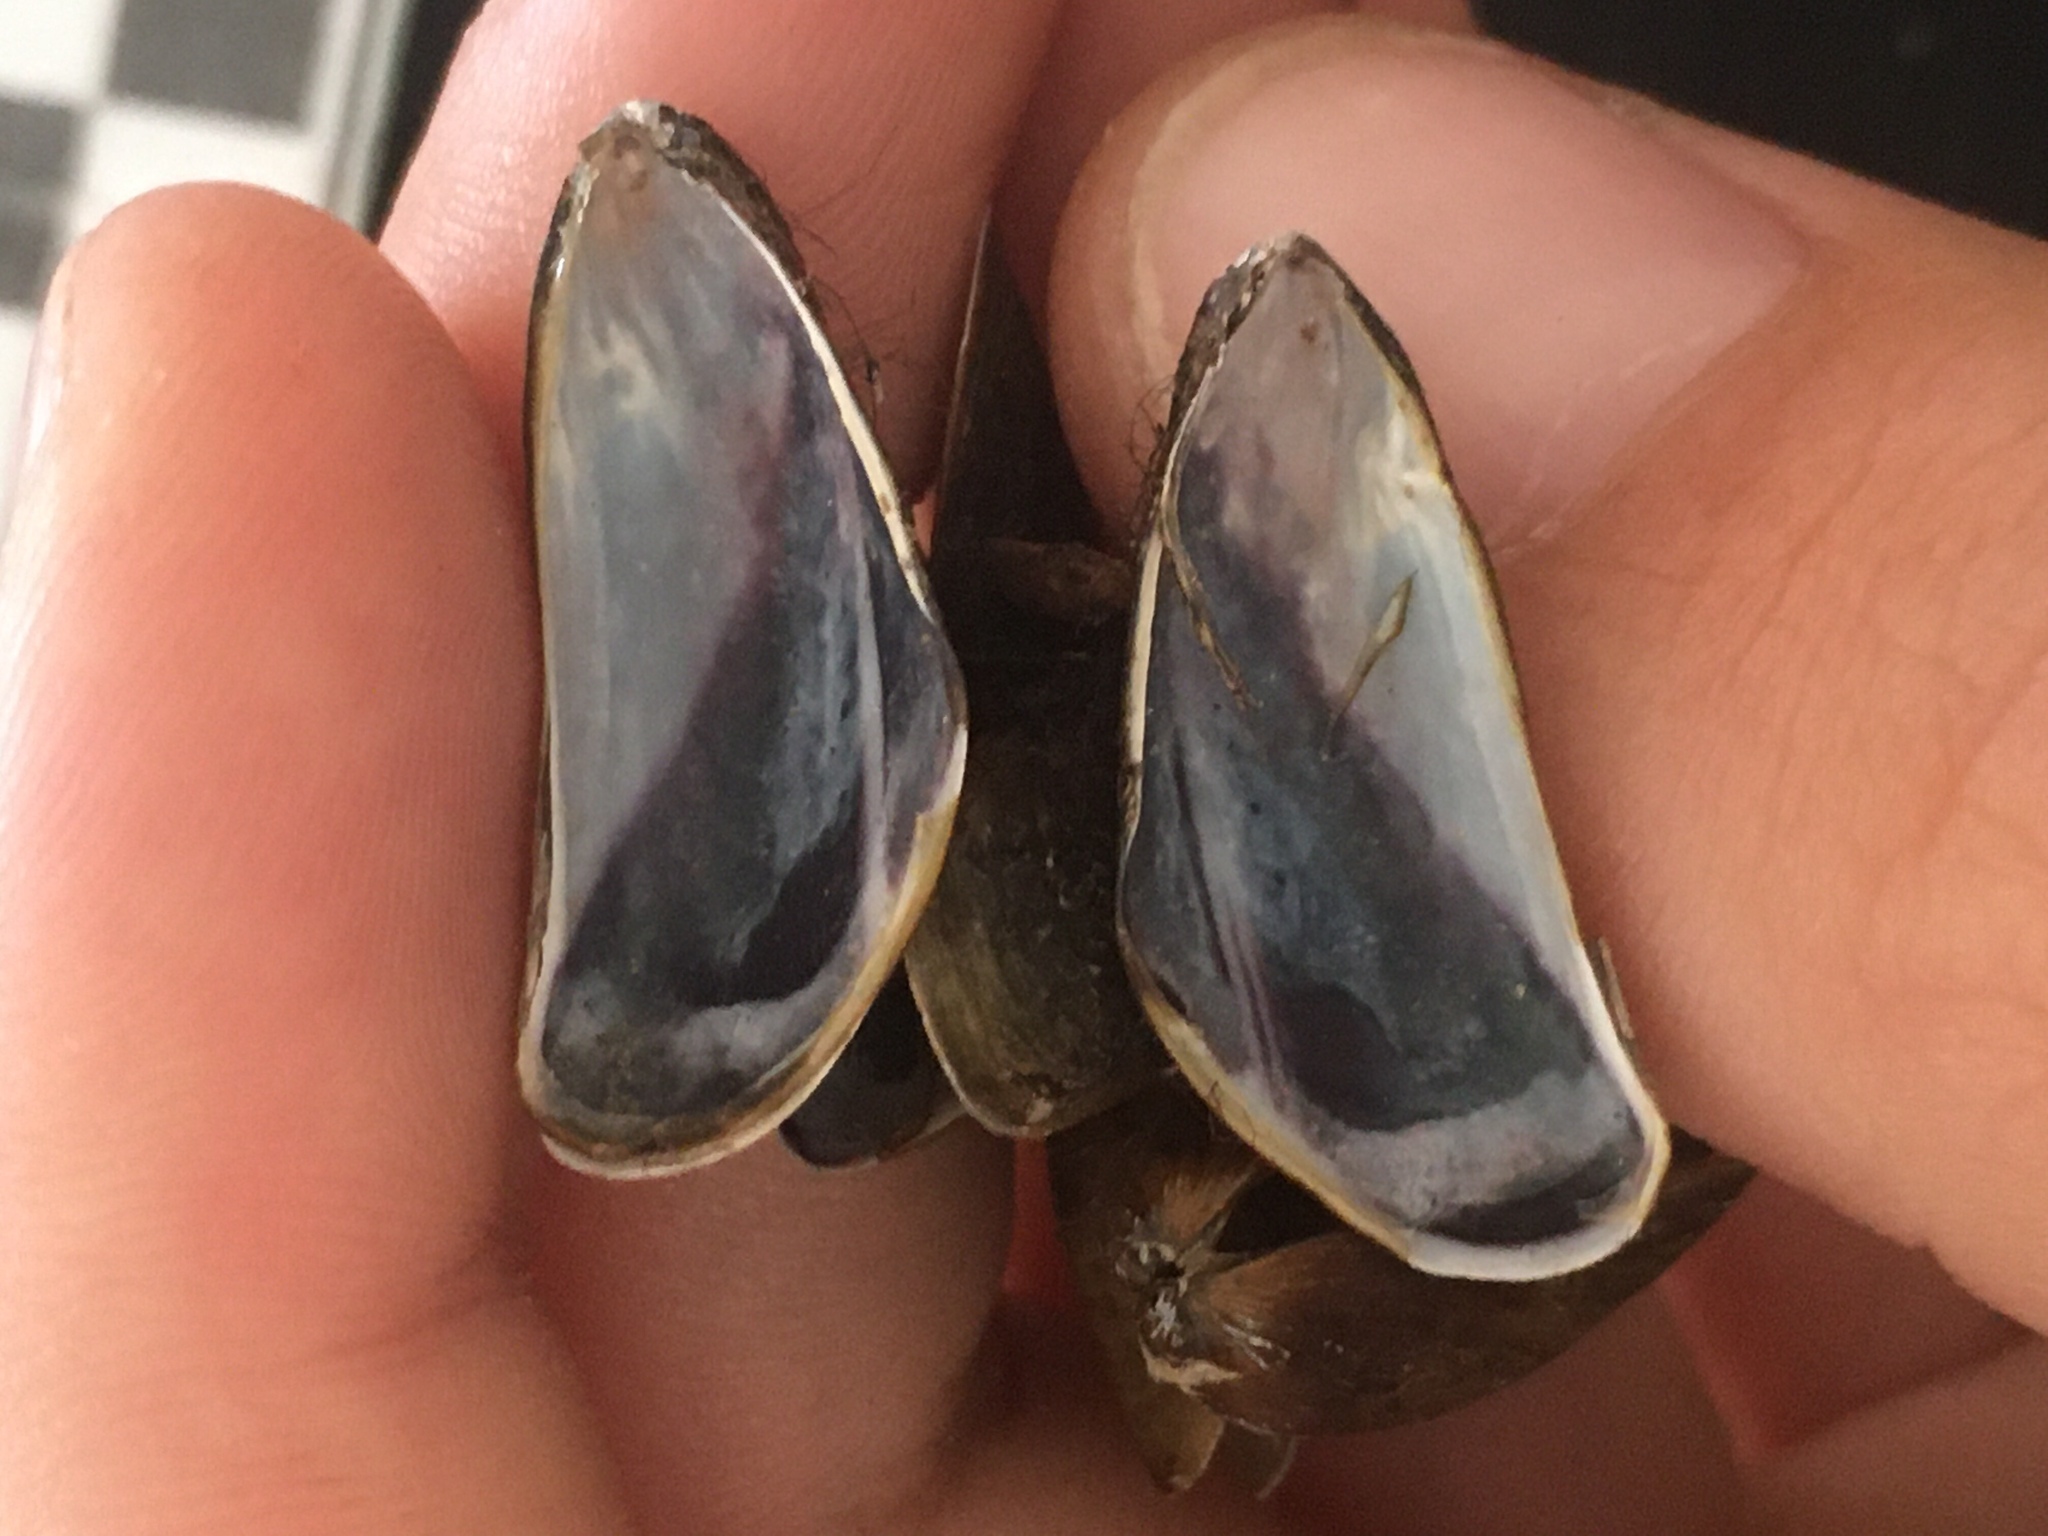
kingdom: Animalia
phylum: Mollusca
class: Bivalvia
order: Mytilida
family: Mytilidae
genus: Limnoperna
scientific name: Limnoperna fortunei
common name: Golden mussel
